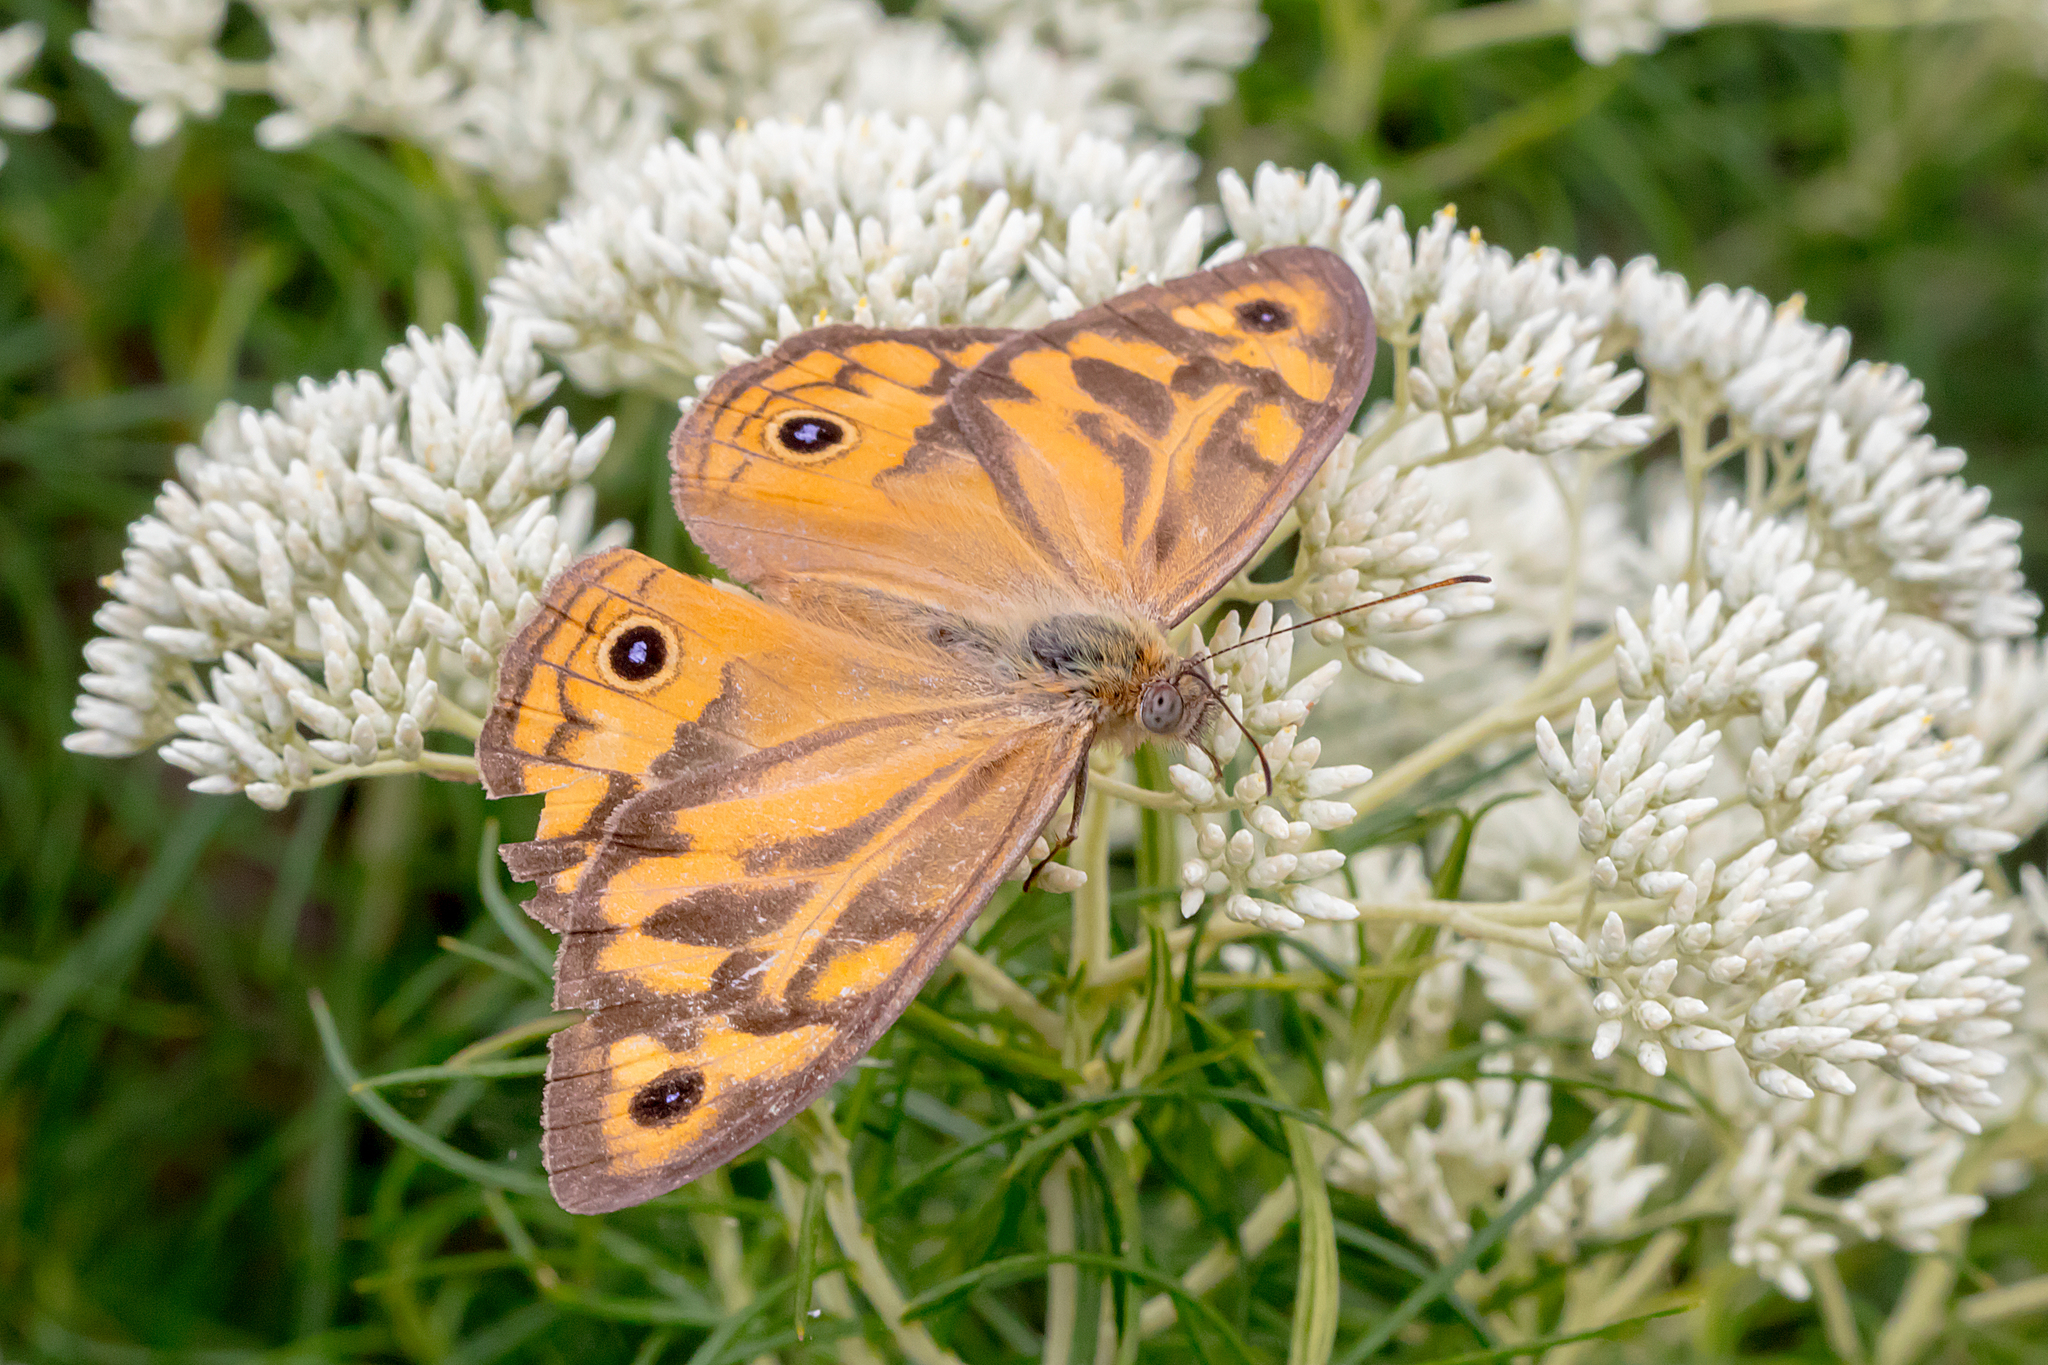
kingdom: Animalia
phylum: Arthropoda
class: Insecta
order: Lepidoptera
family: Nymphalidae
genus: Heteronympha
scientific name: Heteronympha merope
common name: Common brown
